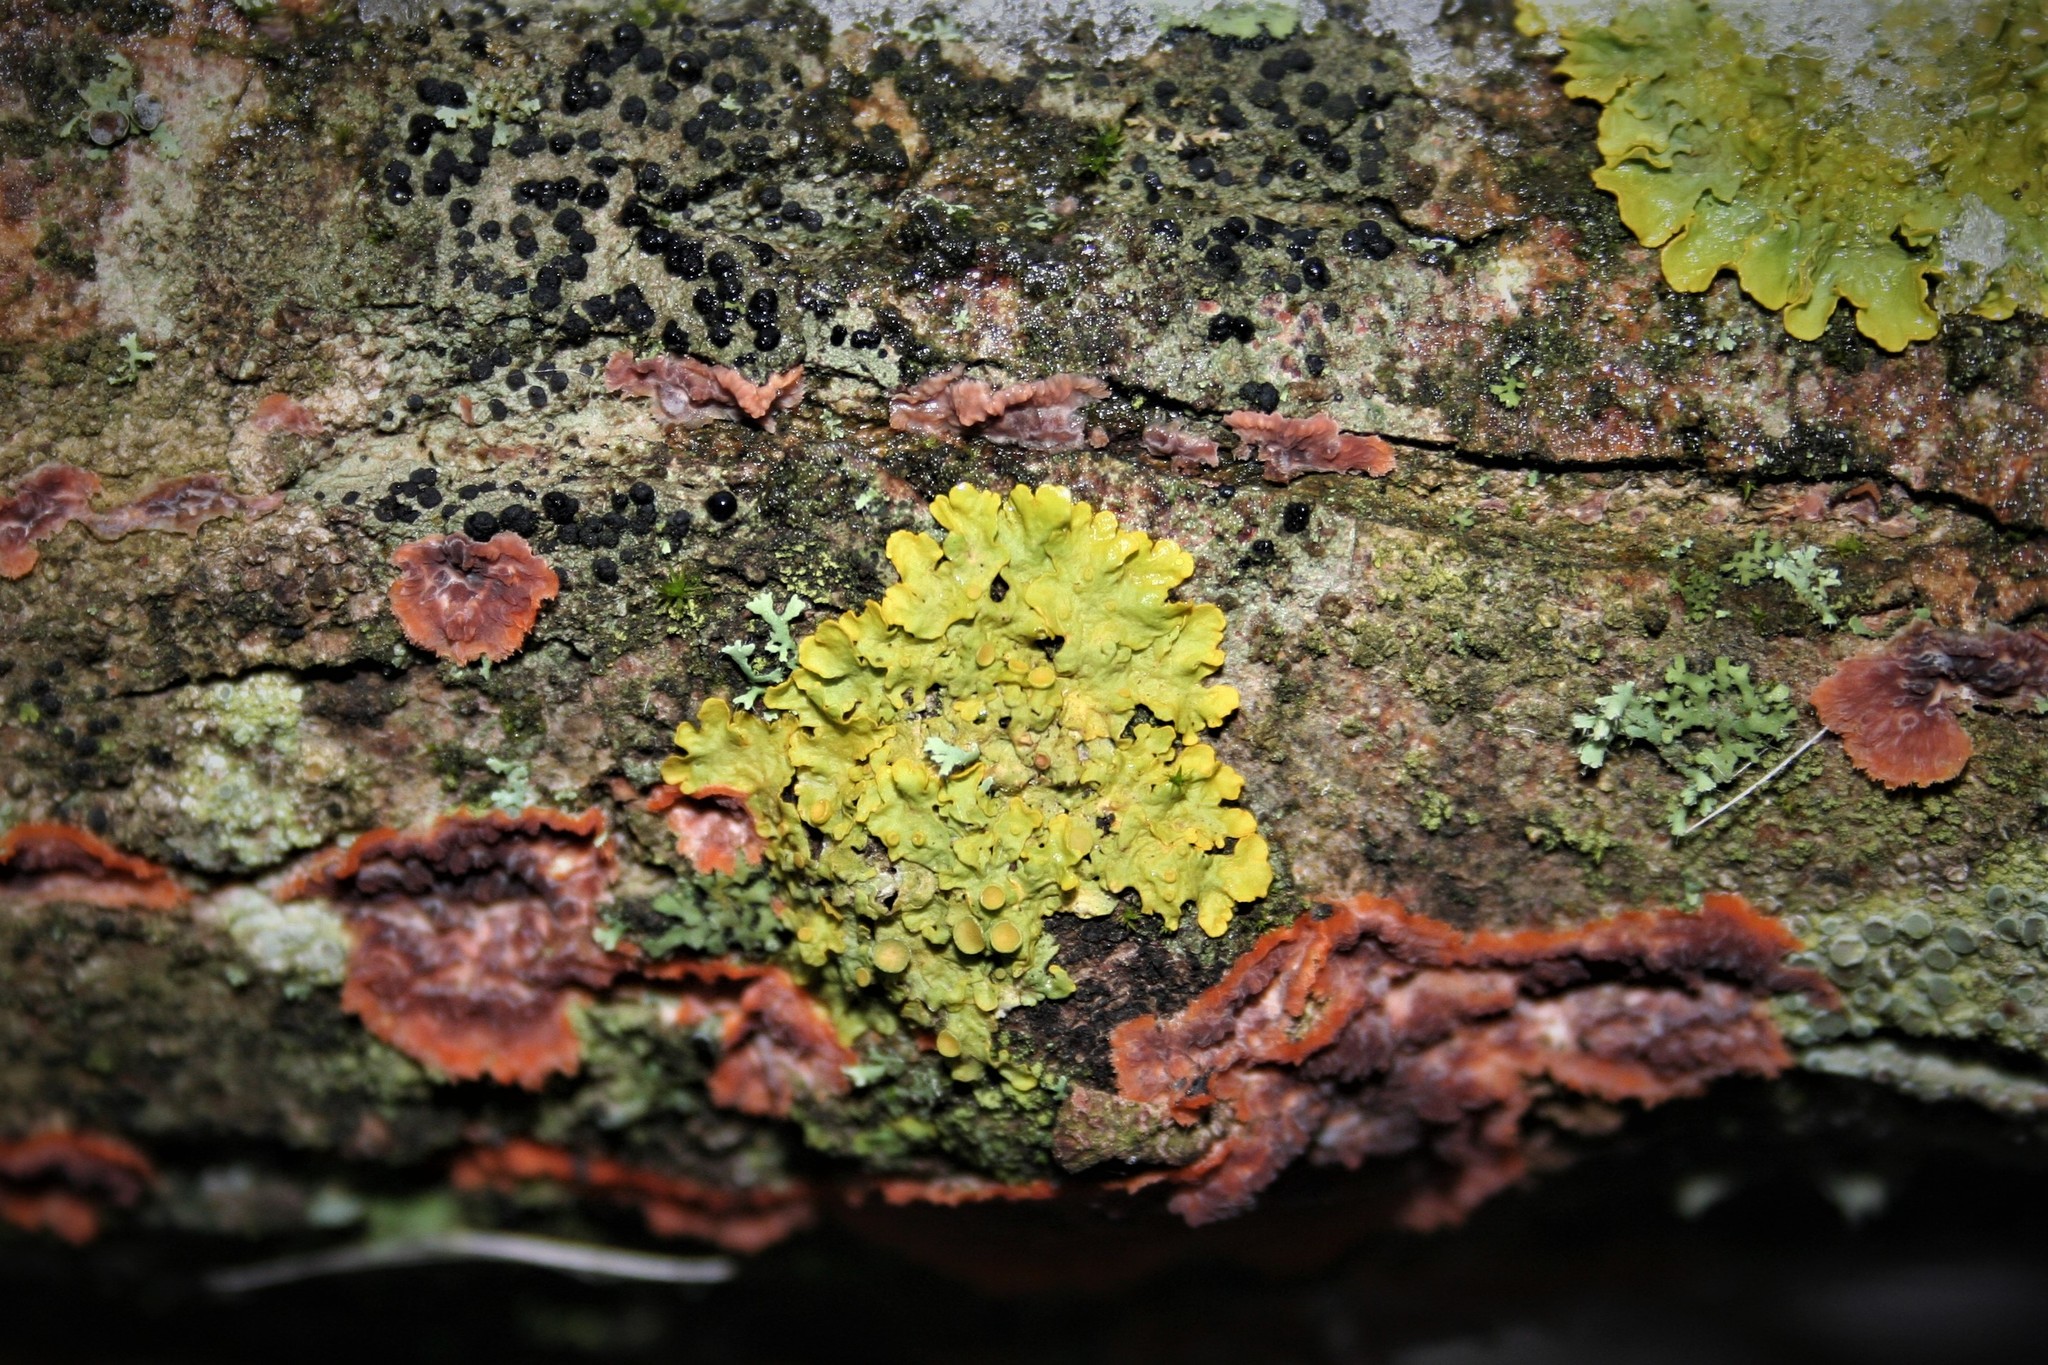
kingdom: Fungi
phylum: Ascomycota
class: Lecanoromycetes
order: Teloschistales
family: Teloschistaceae
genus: Xanthoria
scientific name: Xanthoria parietina
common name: Common orange lichen
